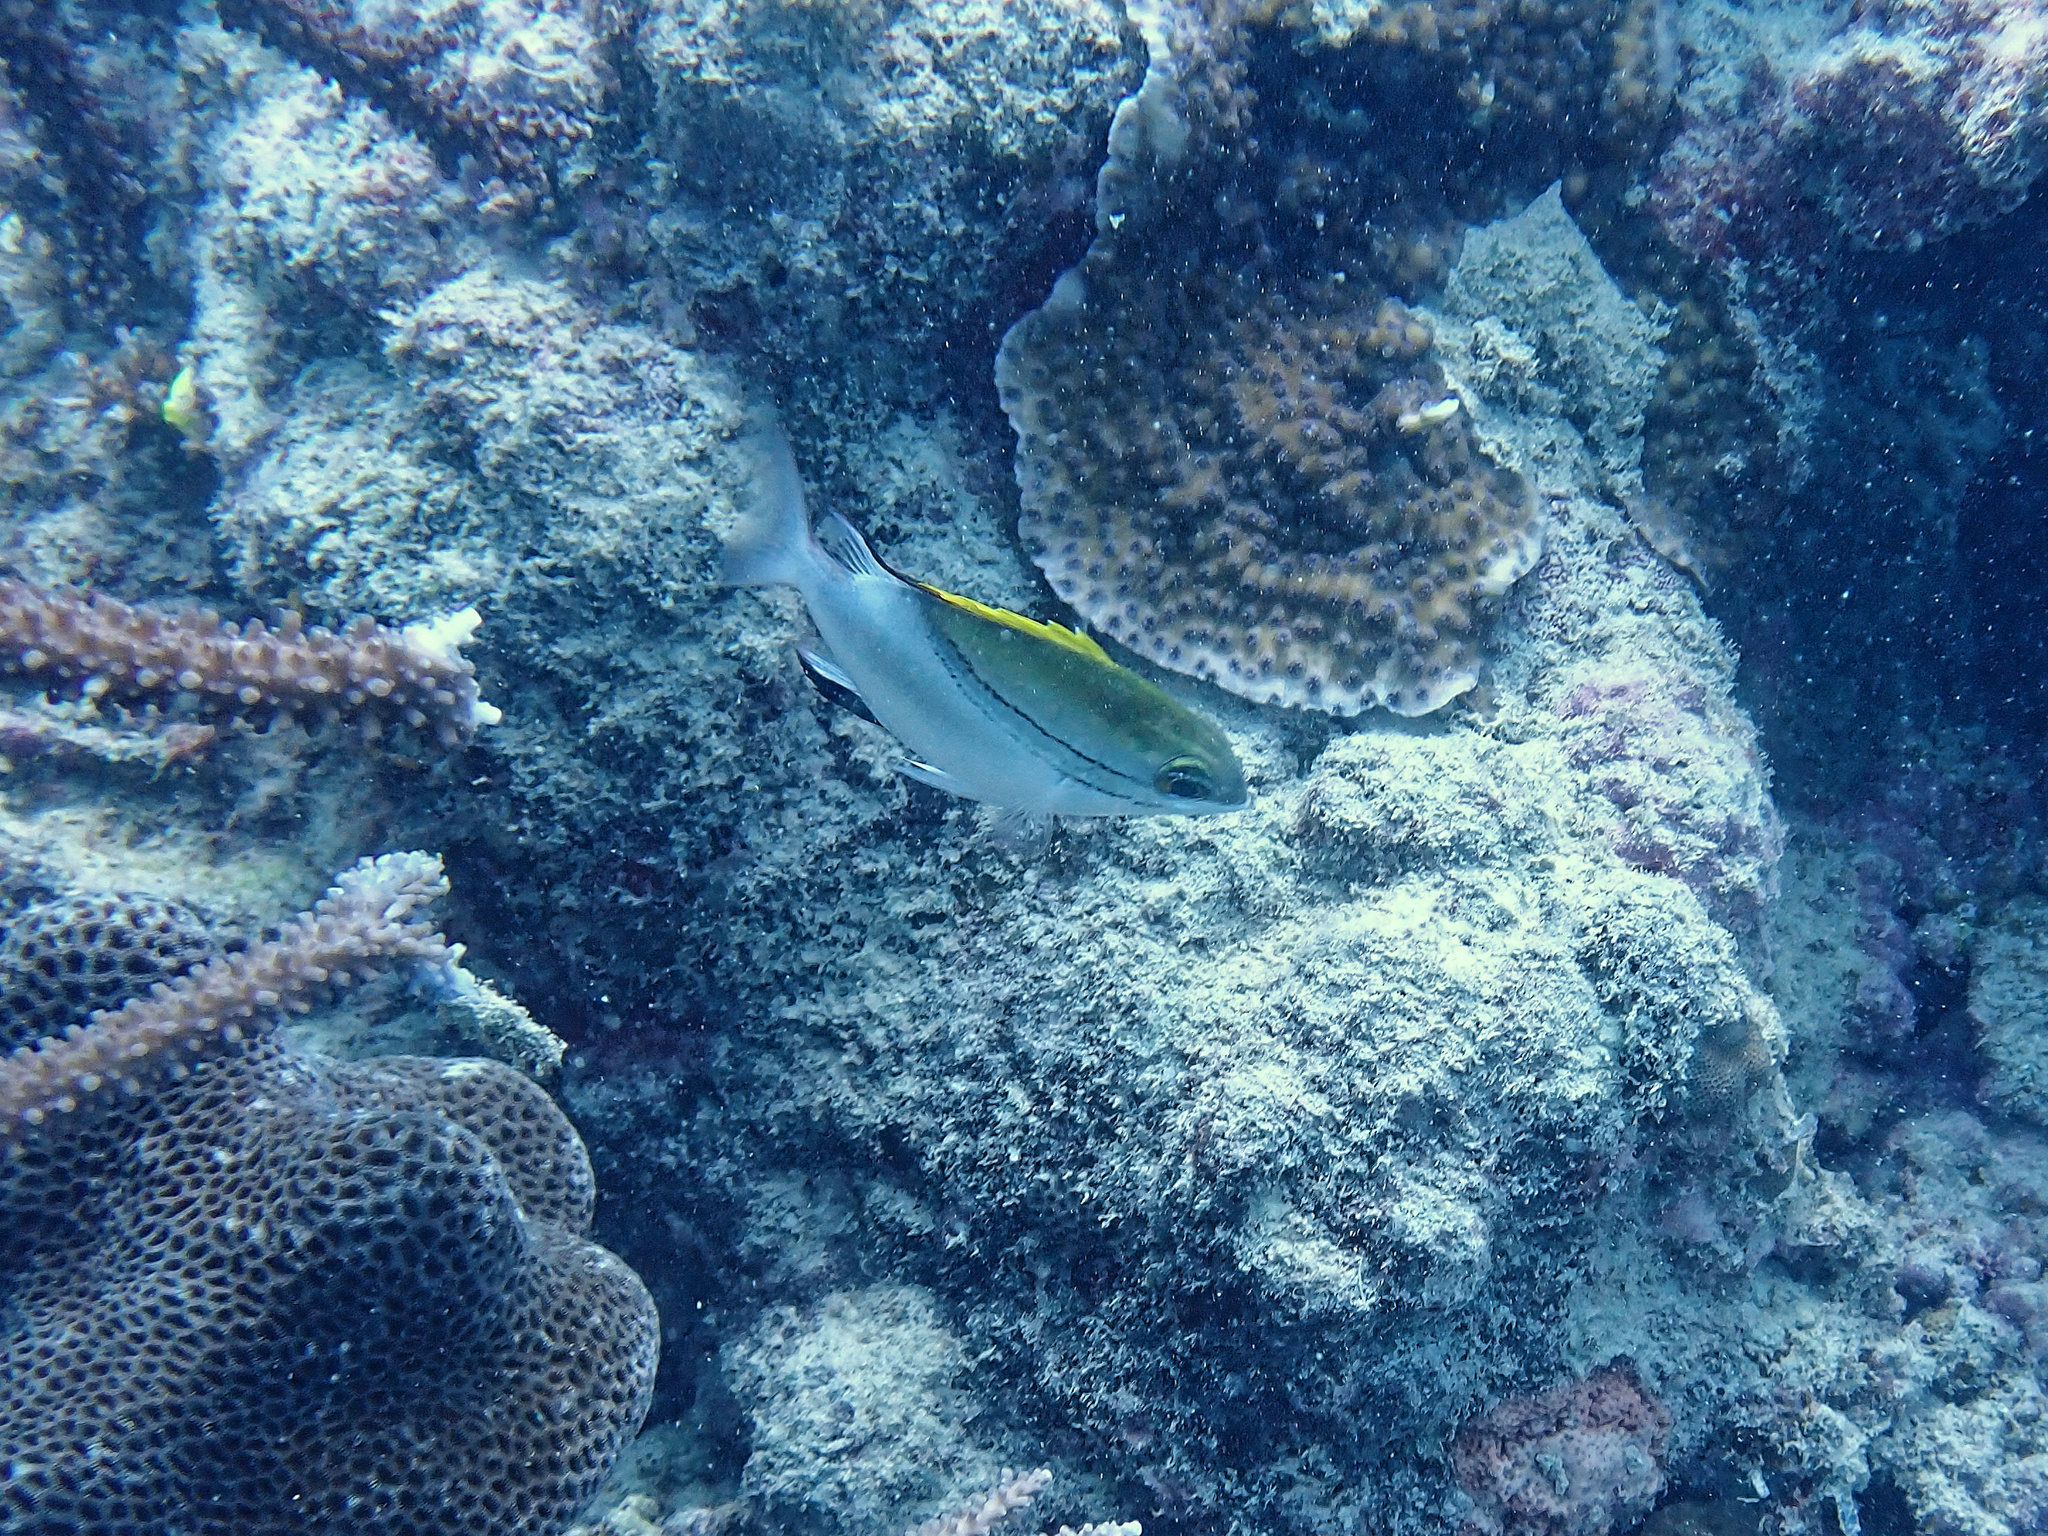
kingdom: Animalia
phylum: Chordata
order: Perciformes
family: Nemipteridae
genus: Scolopsis
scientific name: Scolopsis bilineata
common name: Two-lined monocle bream
